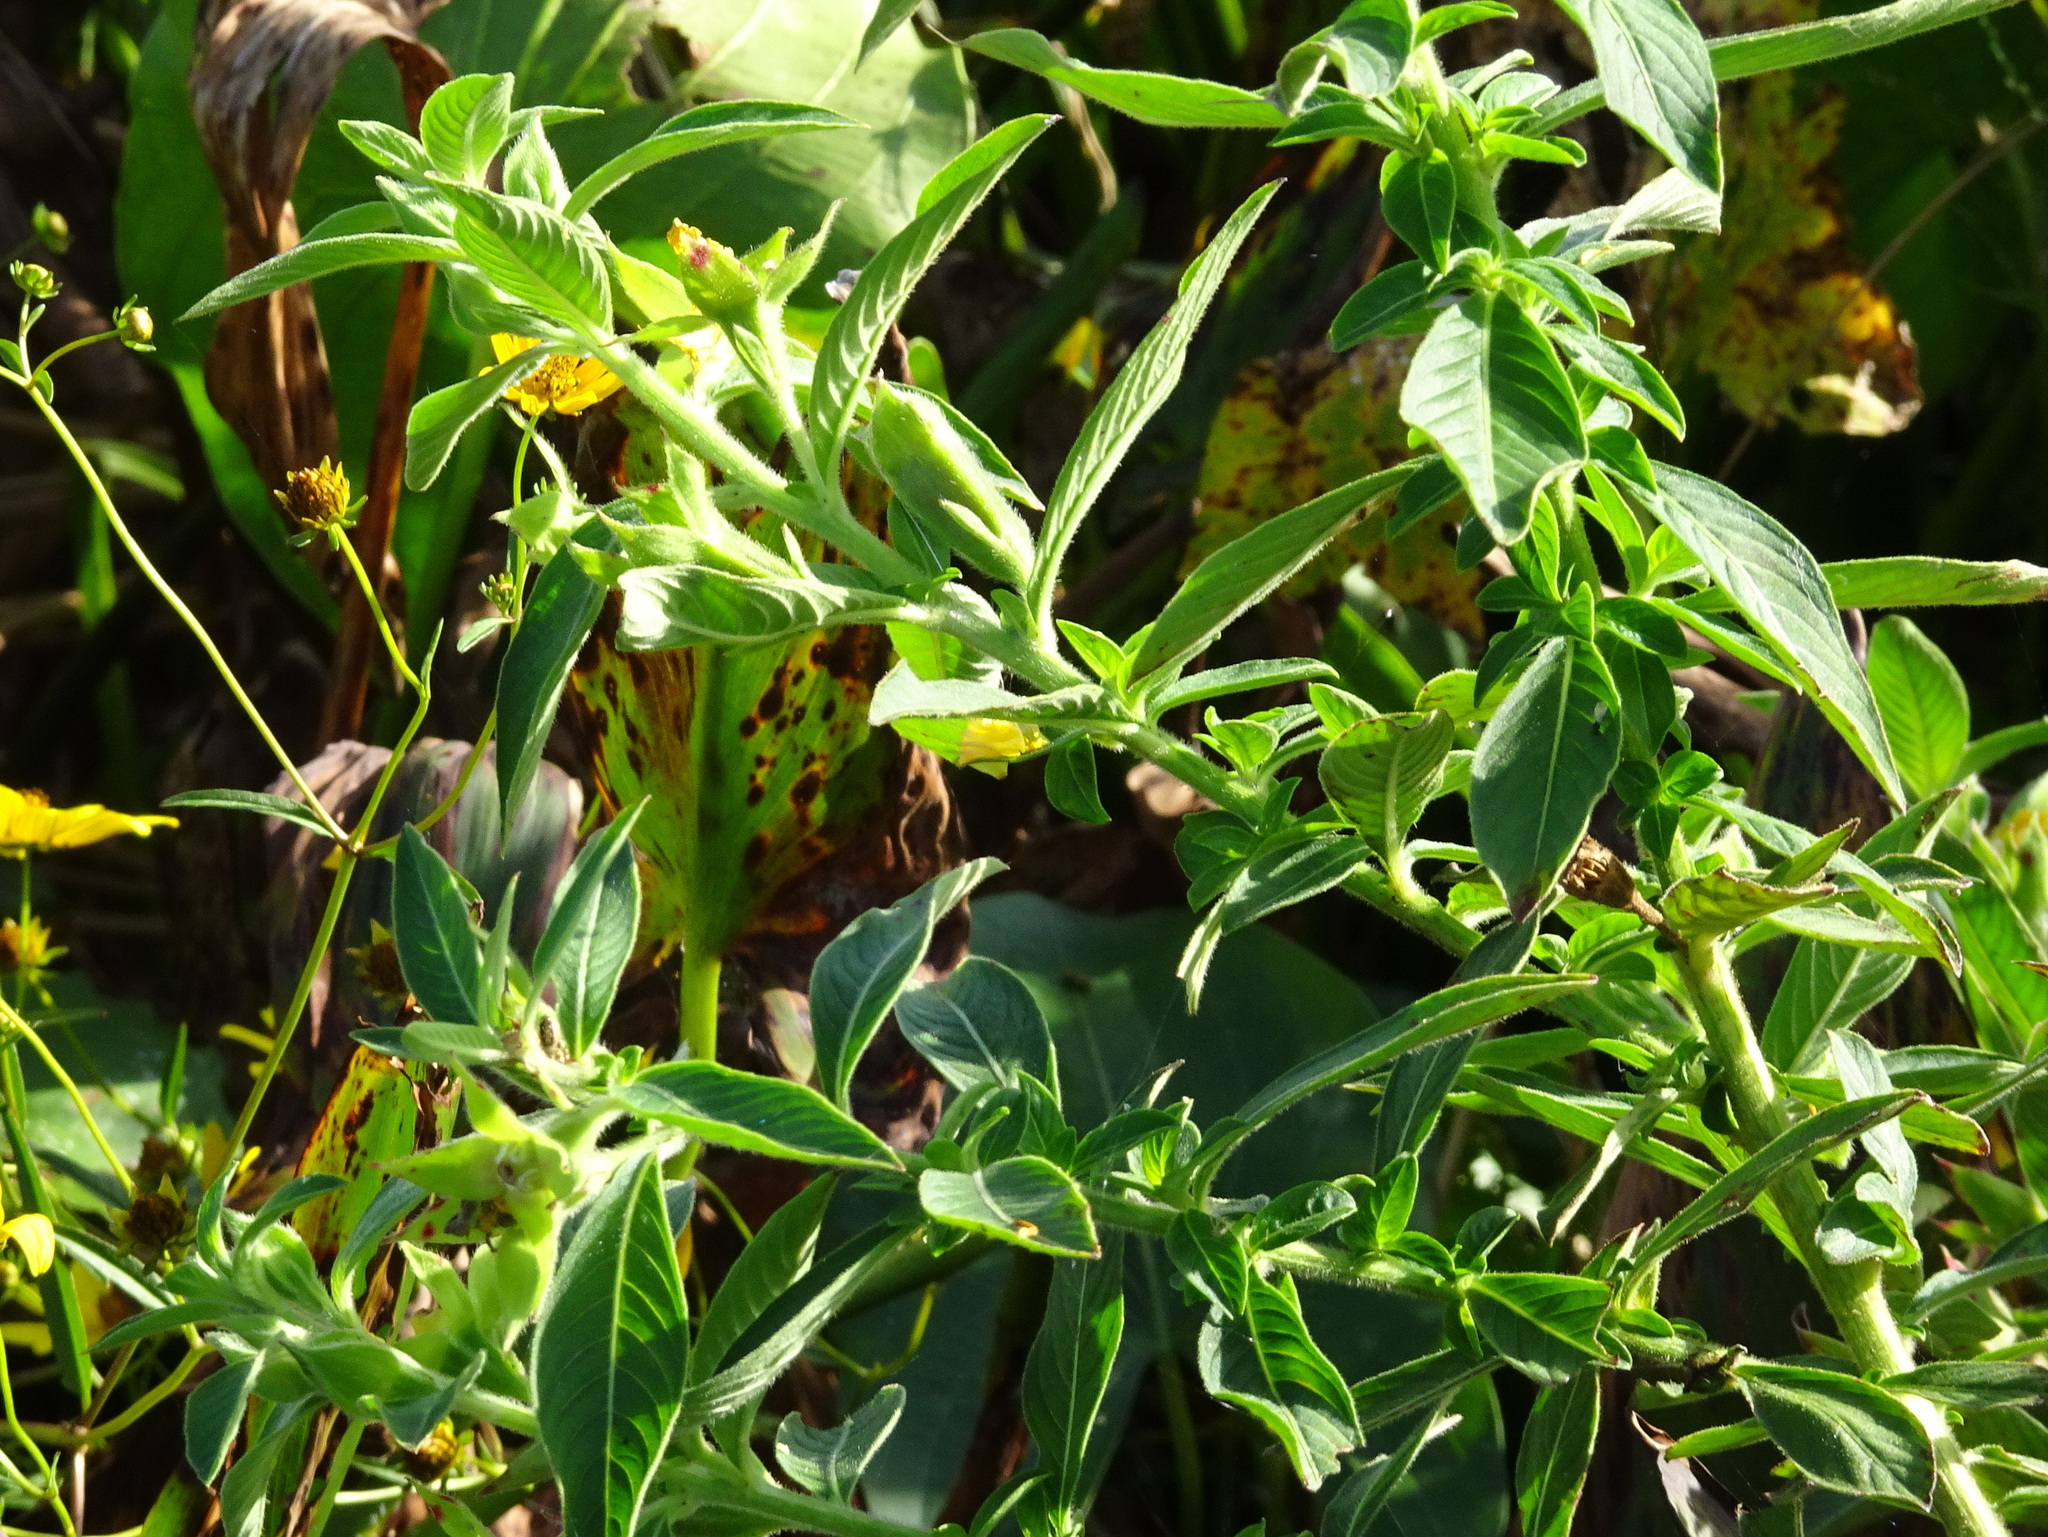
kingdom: Plantae
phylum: Tracheophyta
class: Magnoliopsida
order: Myrtales
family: Onagraceae
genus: Ludwigia
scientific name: Ludwigia peruviana
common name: Peruvian primrose-willow
